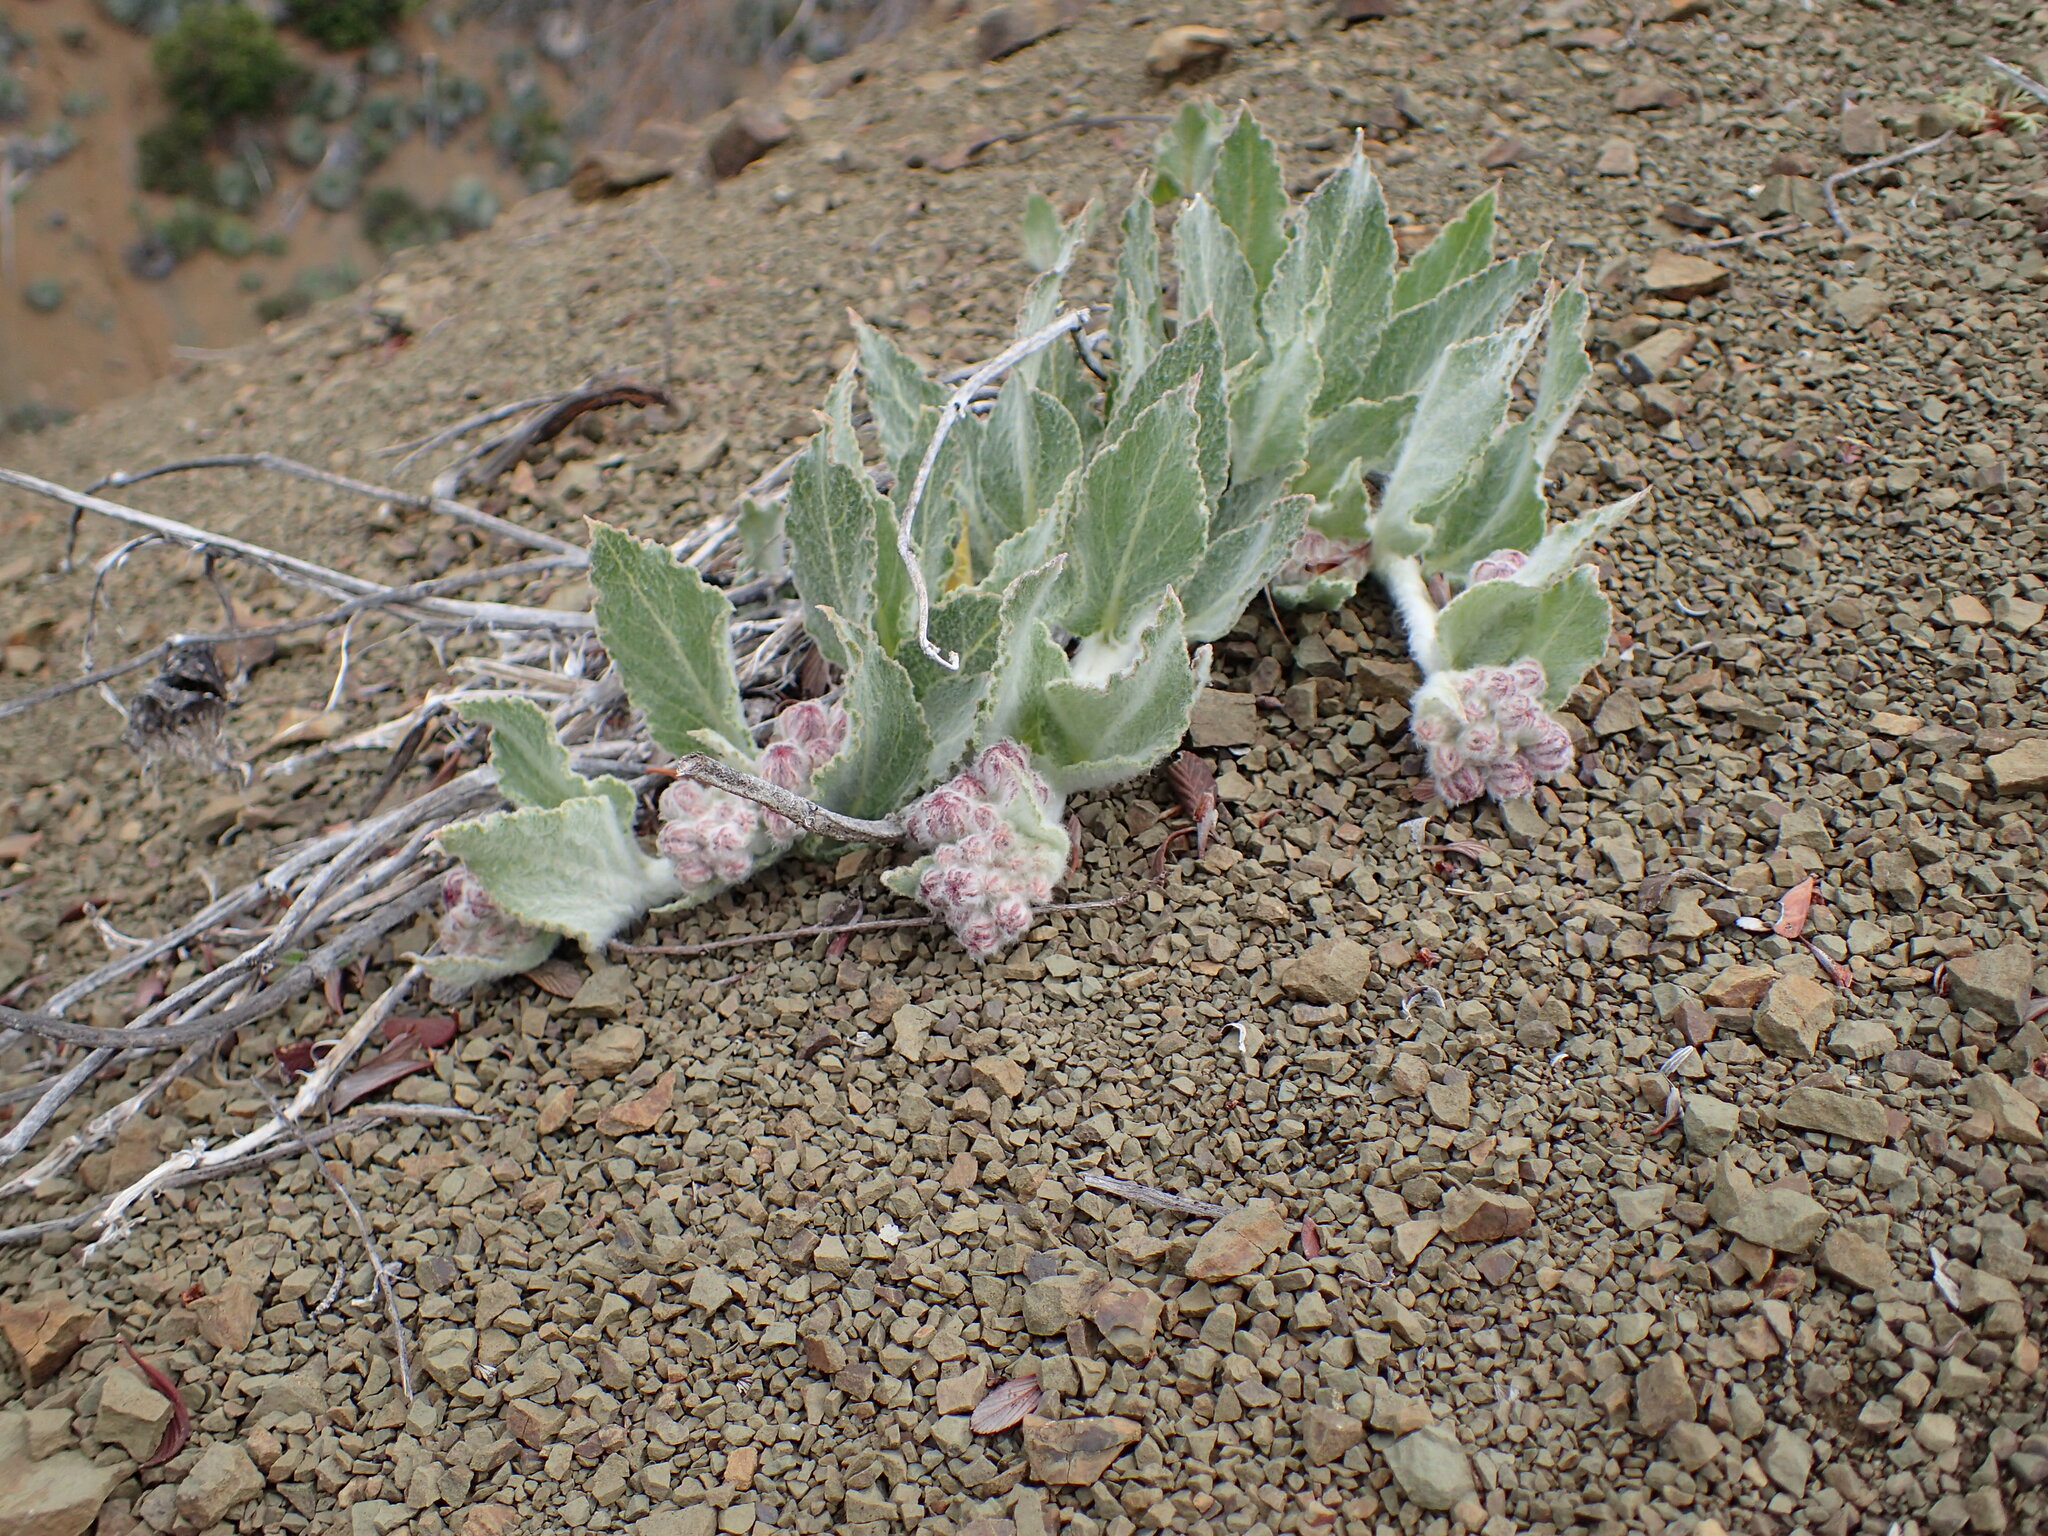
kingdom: Plantae
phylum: Tracheophyta
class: Magnoliopsida
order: Gentianales
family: Apocynaceae
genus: Asclepias
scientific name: Asclepias californica
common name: California milkweed
